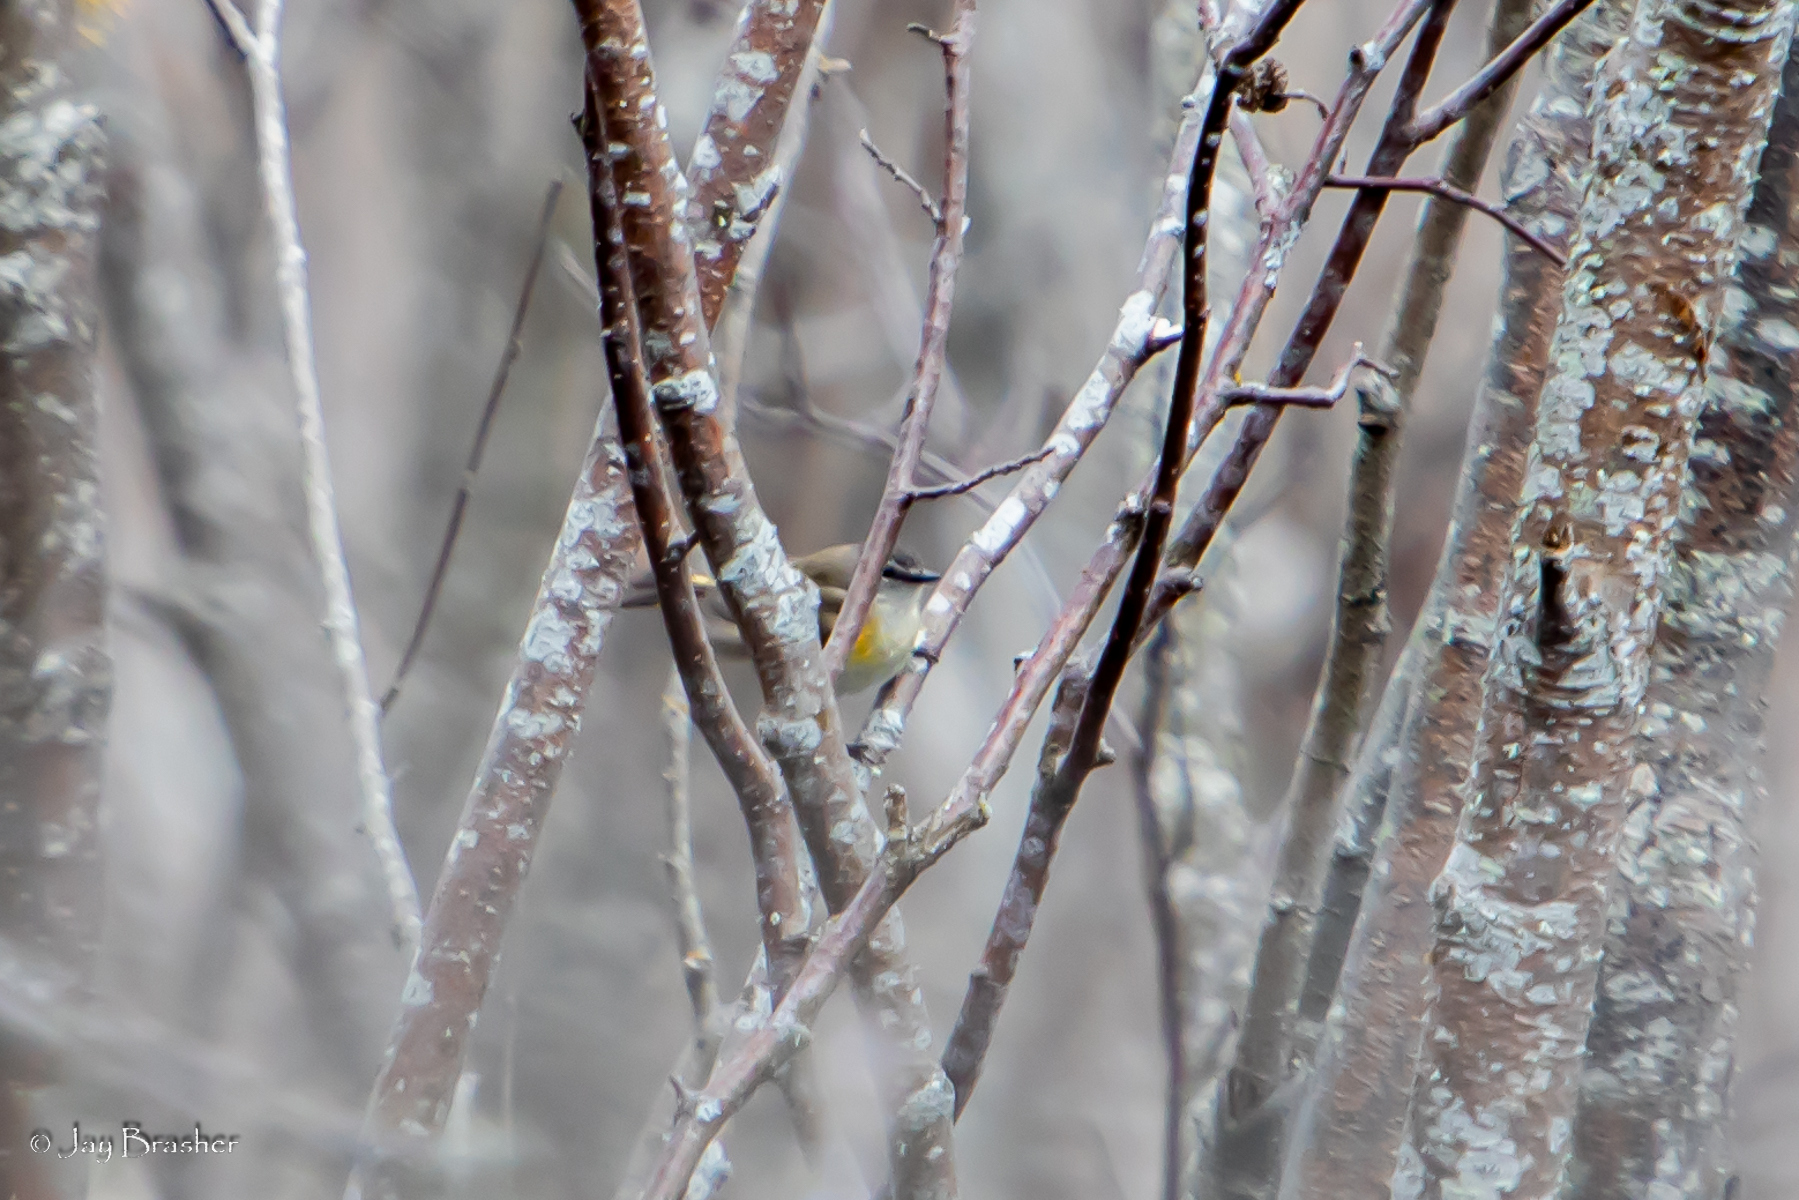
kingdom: Animalia
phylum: Chordata
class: Aves
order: Passeriformes
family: Parulidae
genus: Setophaga
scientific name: Setophaga ruticilla
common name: American redstart
